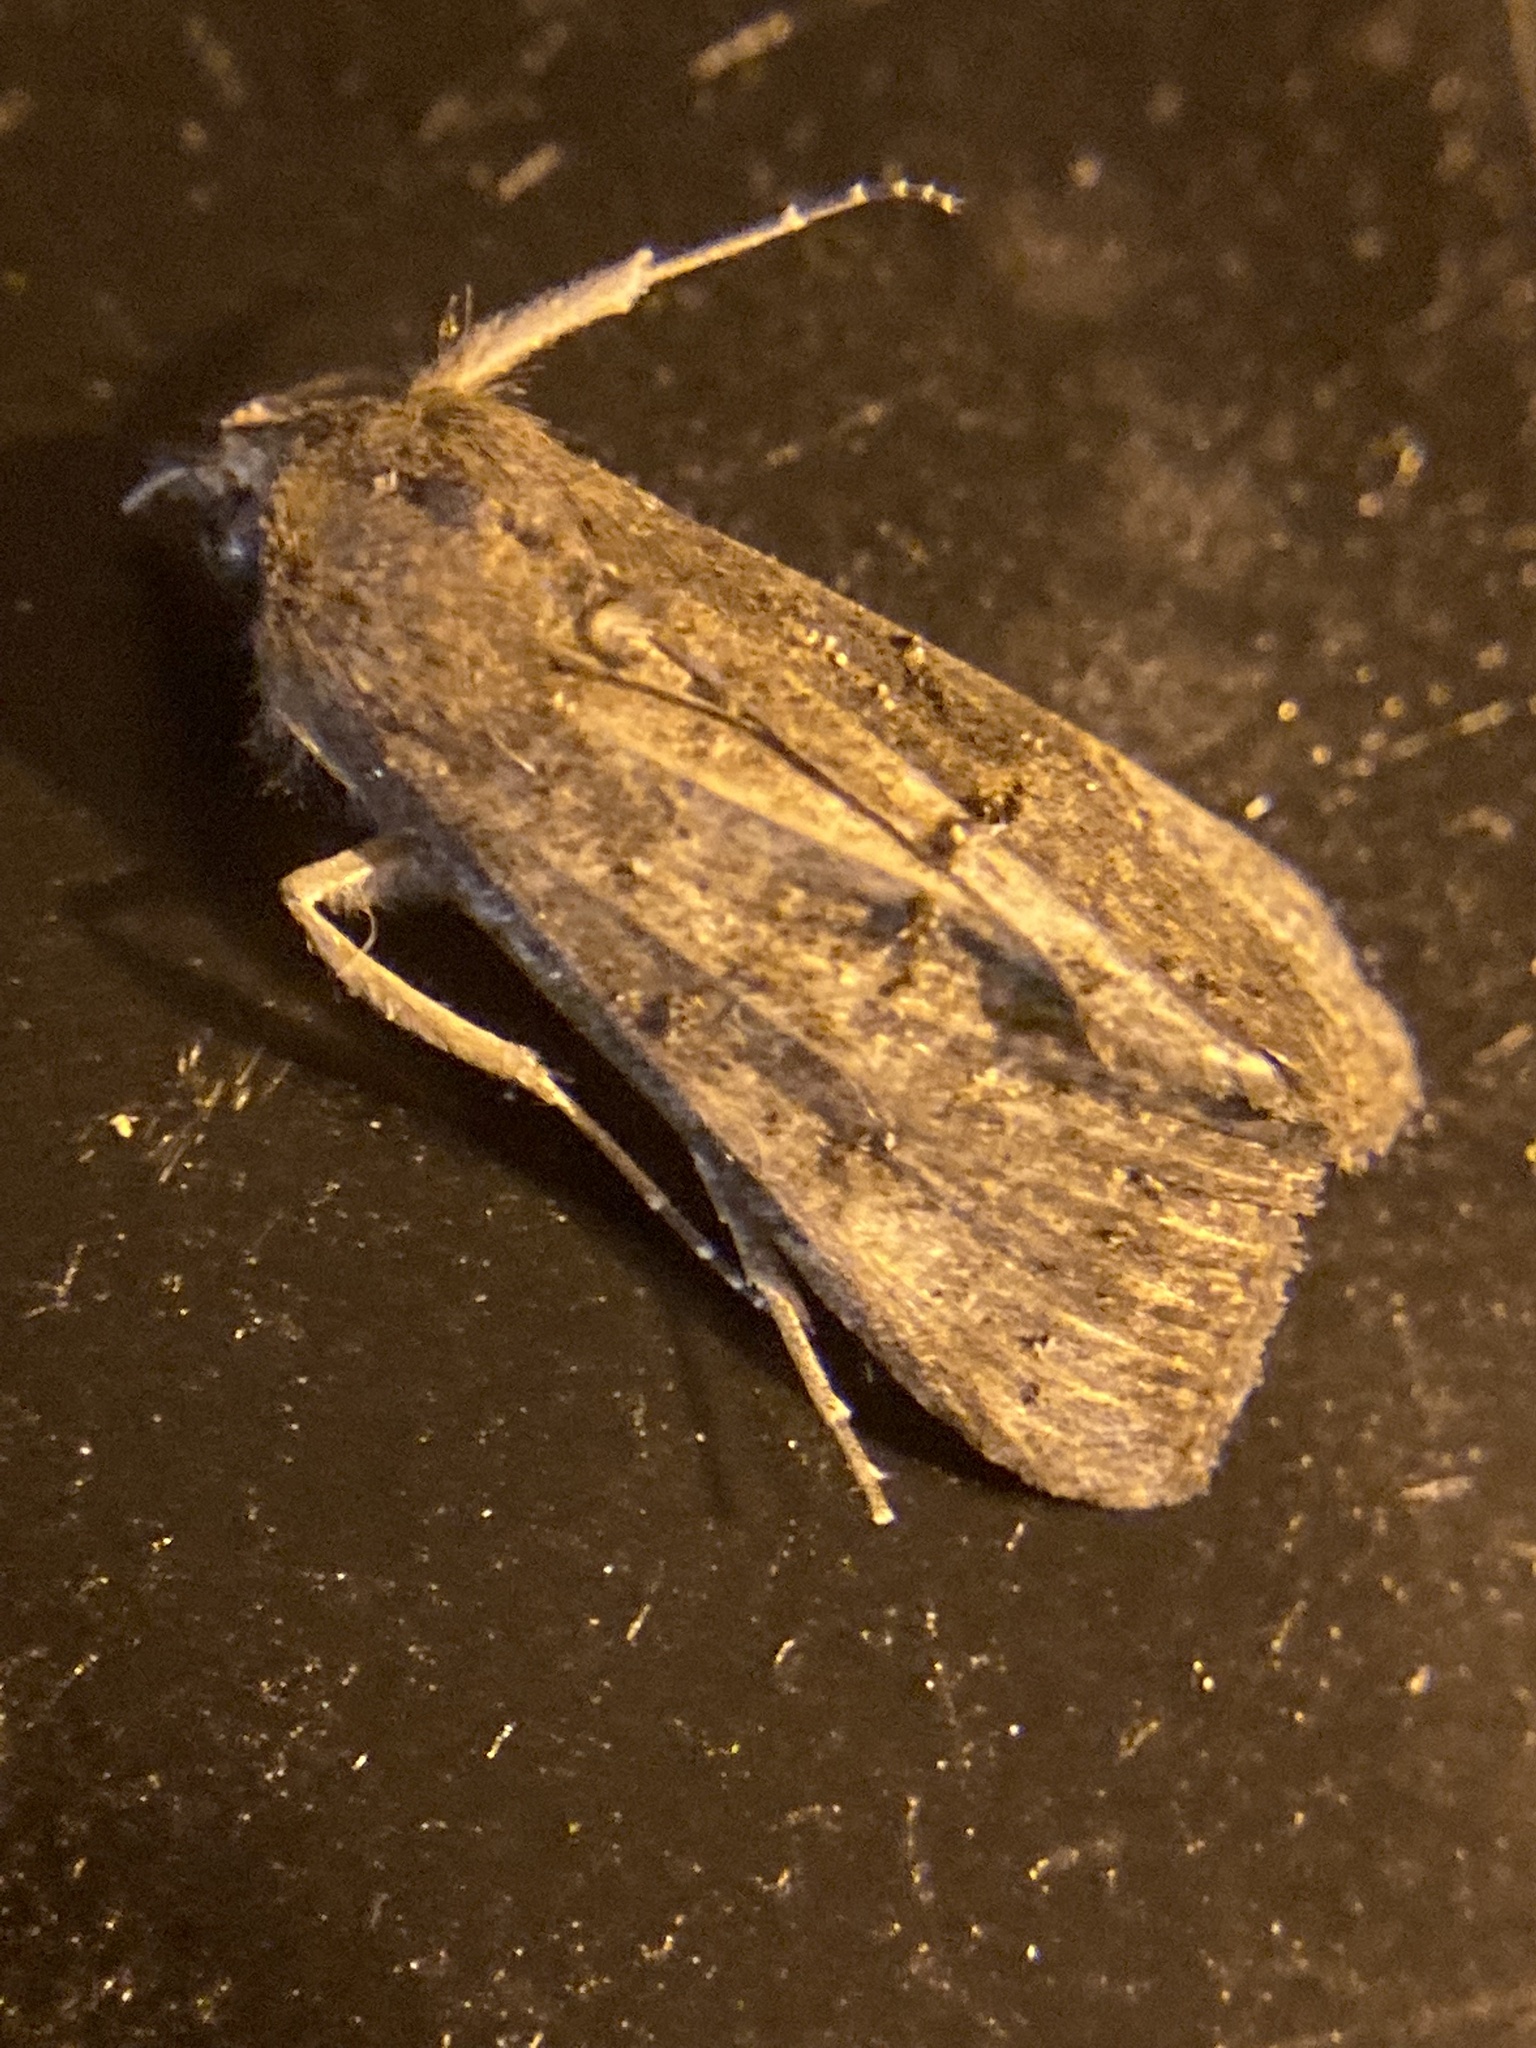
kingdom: Animalia
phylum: Arthropoda
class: Insecta
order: Lepidoptera
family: Erebidae
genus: Hypena
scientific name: Hypena scabra
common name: Green cloverworm
